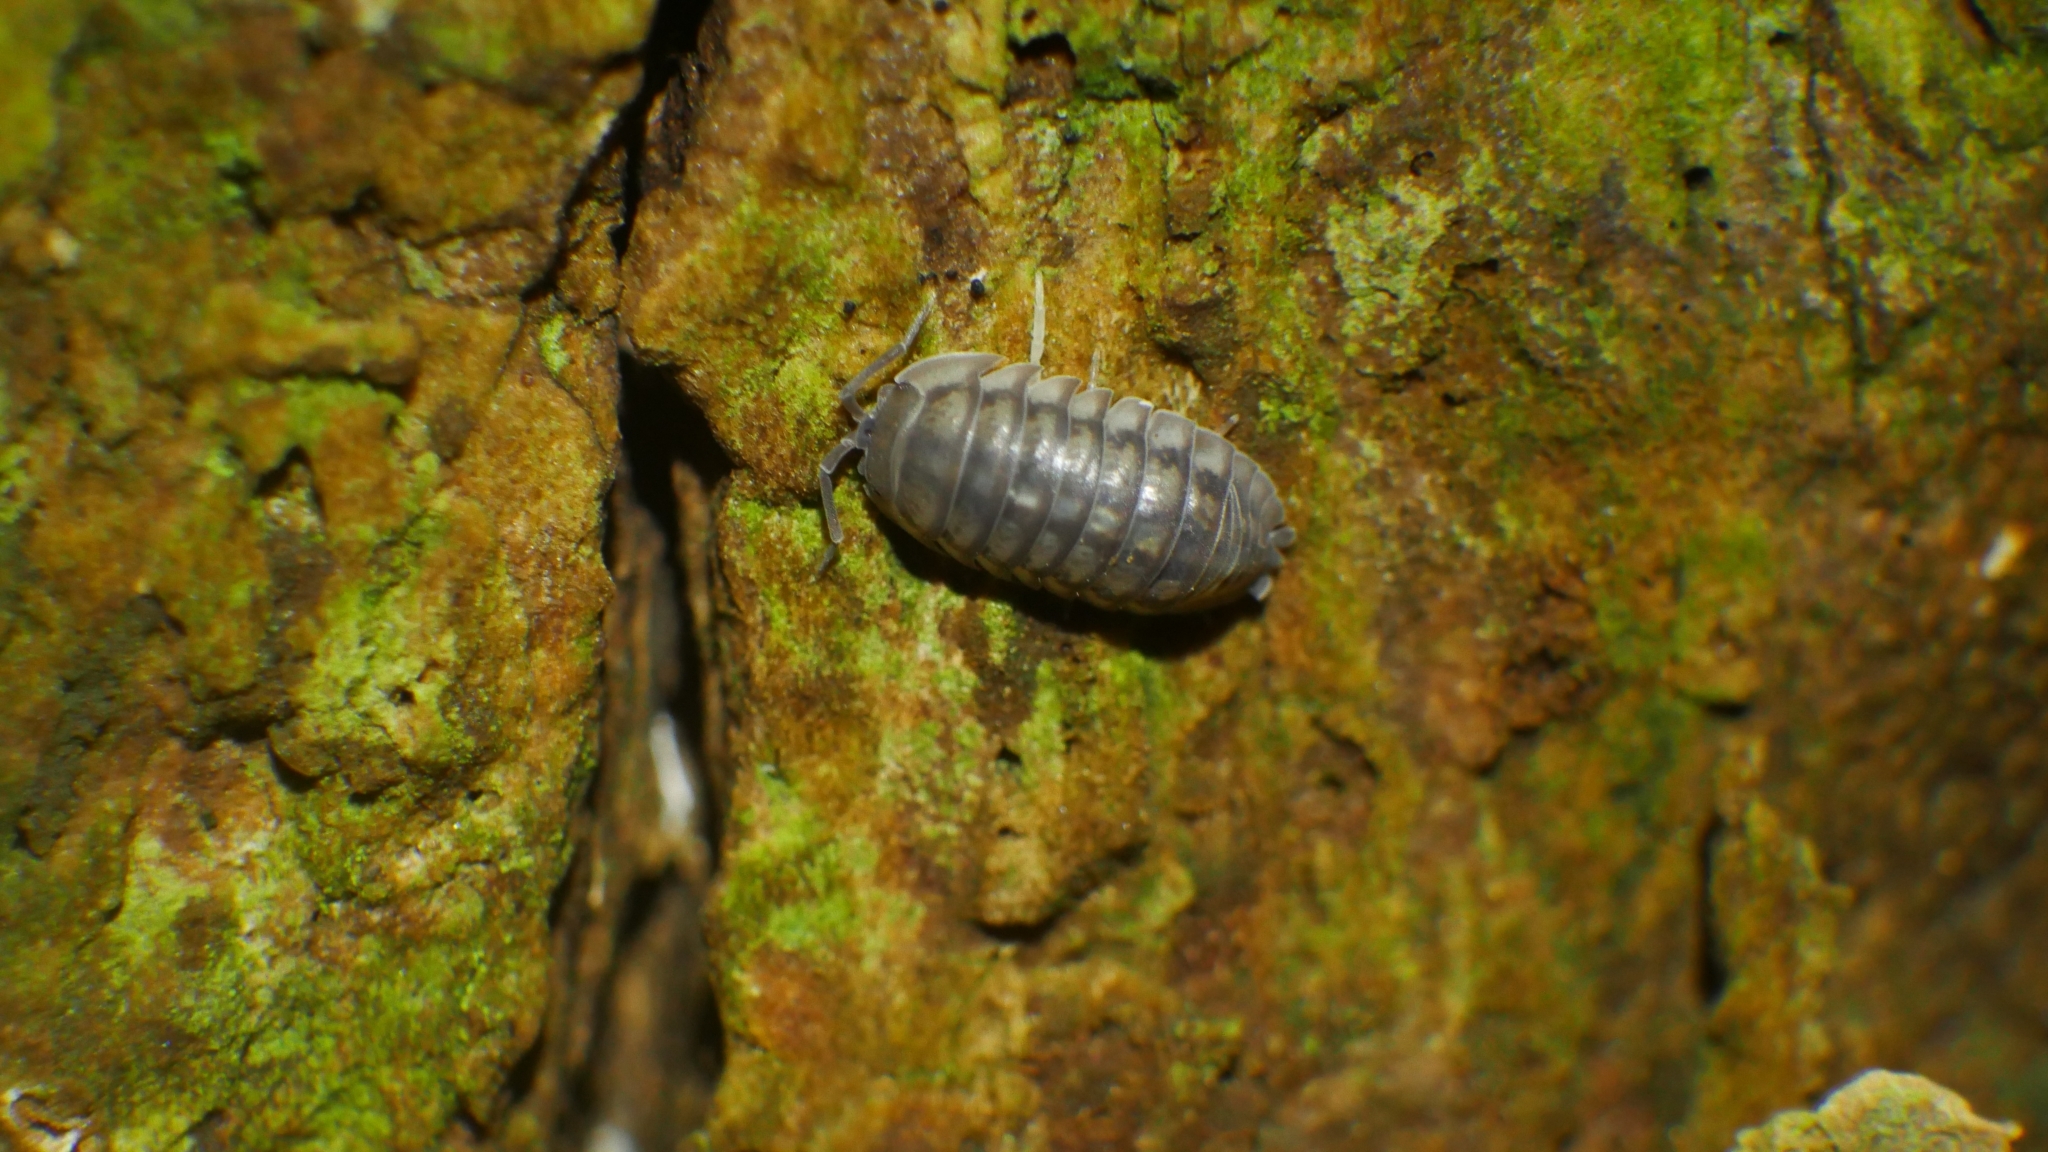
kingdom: Animalia
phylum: Arthropoda
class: Malacostraca
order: Isopoda
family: Armadillidiidae
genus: Armadillidium
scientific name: Armadillidium nasatum
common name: Isopod
